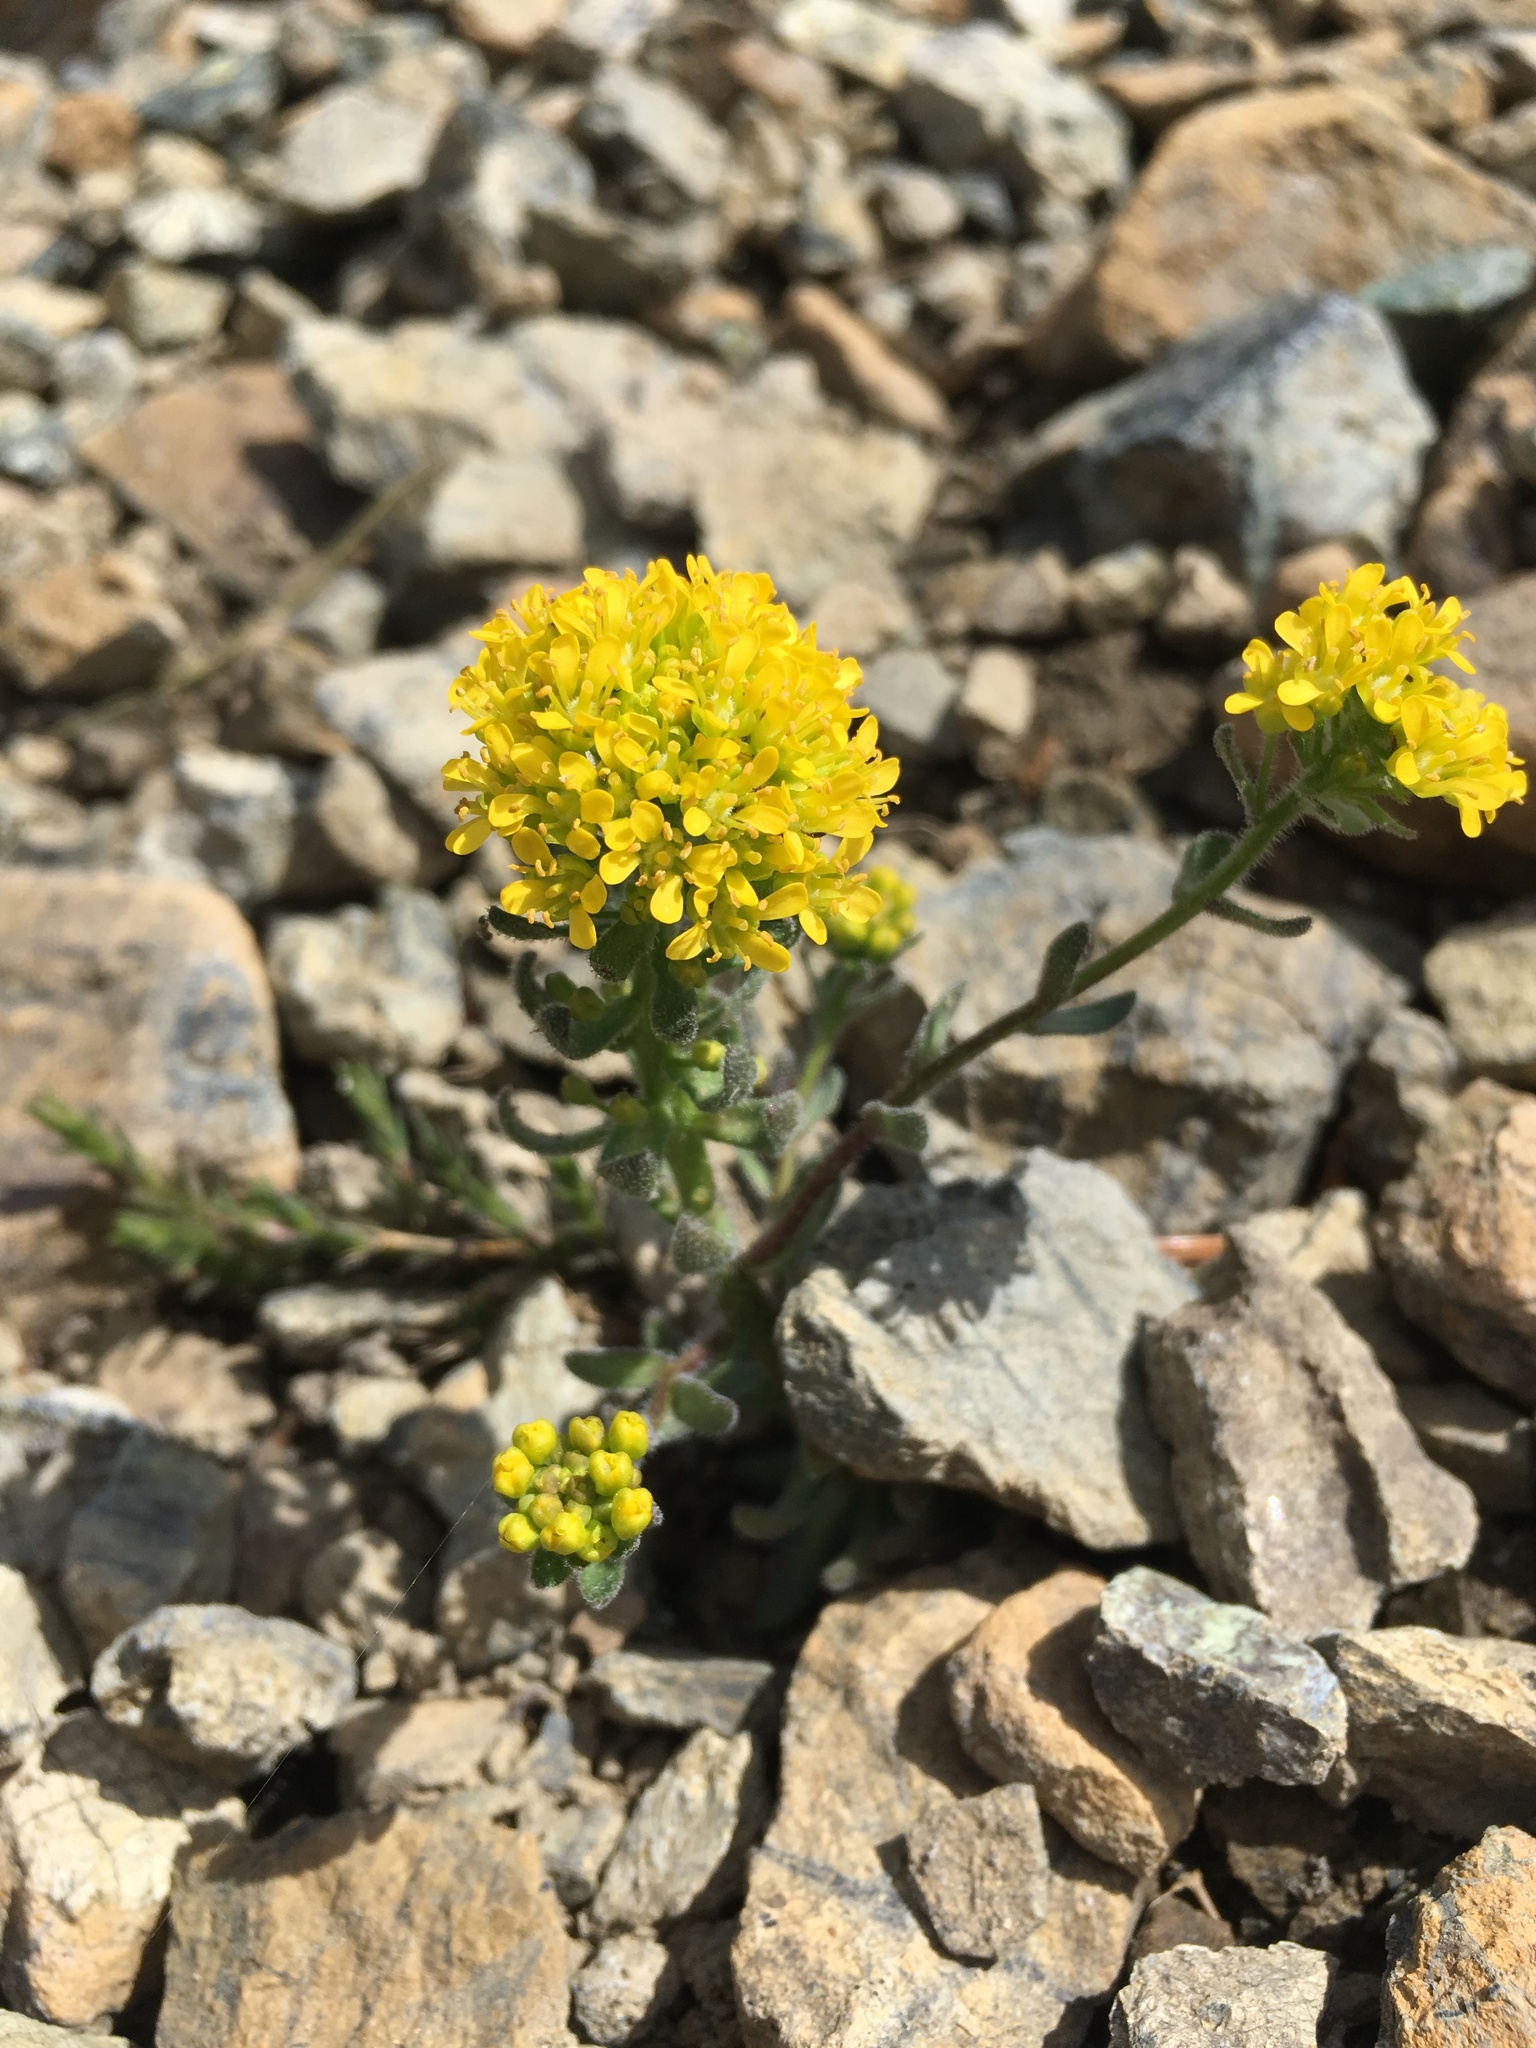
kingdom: Plantae
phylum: Tracheophyta
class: Magnoliopsida
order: Brassicales
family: Brassicaceae
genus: Draba
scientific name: Draba aureola
